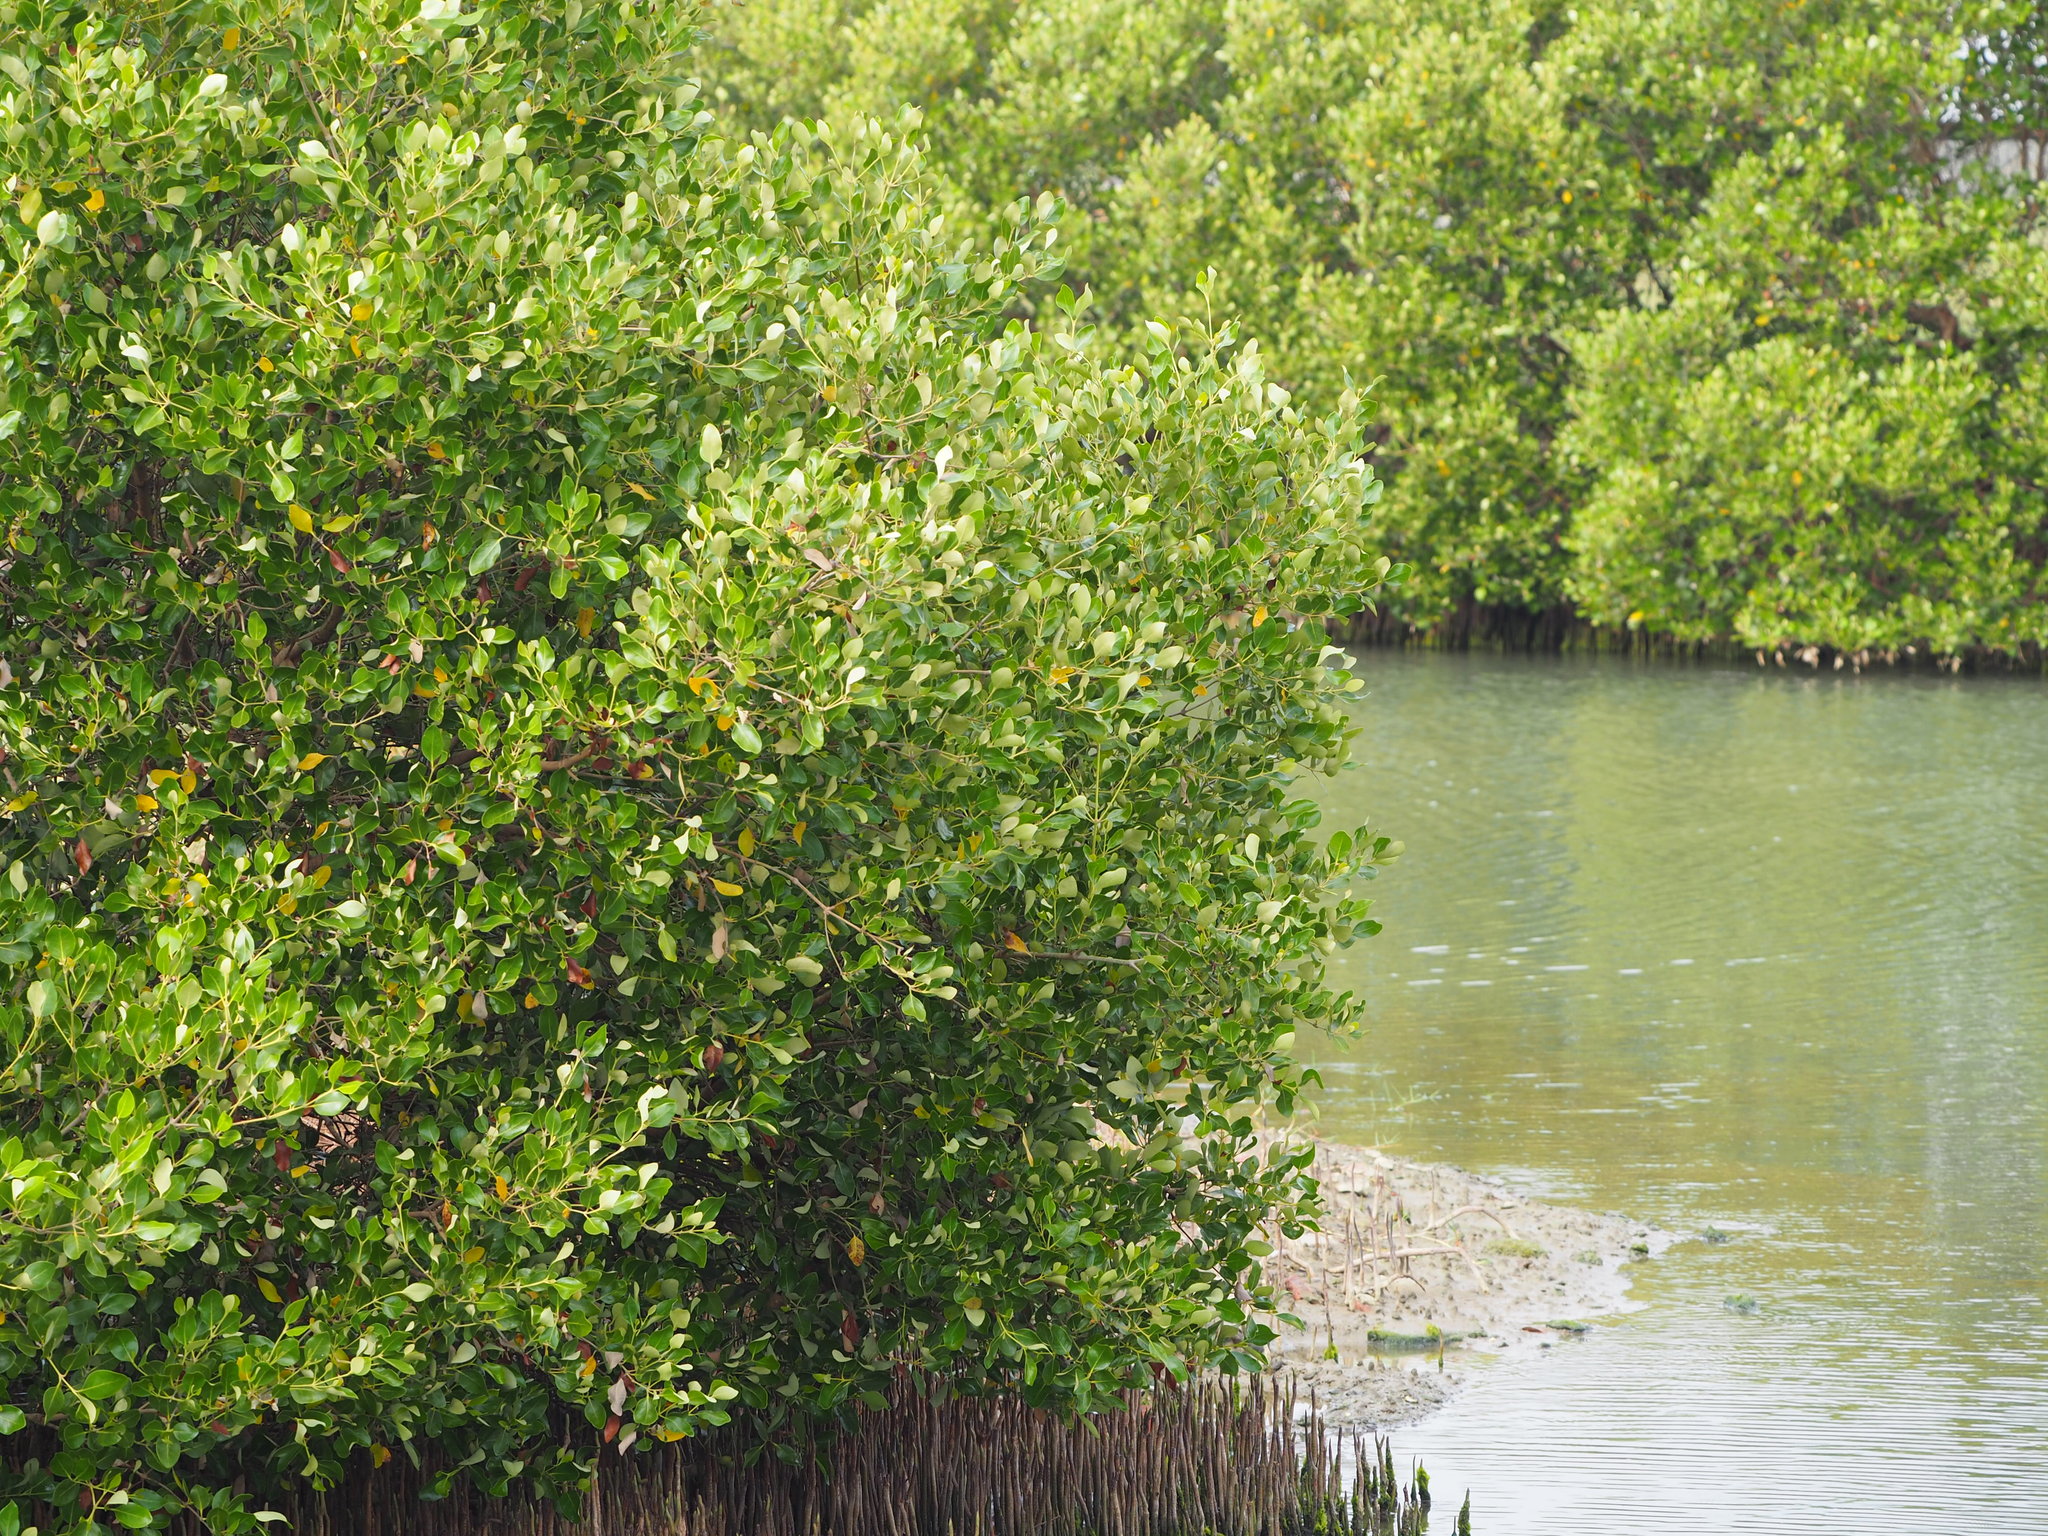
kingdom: Plantae
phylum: Tracheophyta
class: Magnoliopsida
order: Lamiales
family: Acanthaceae
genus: Avicennia
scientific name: Avicennia marina
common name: Gray mangrove
